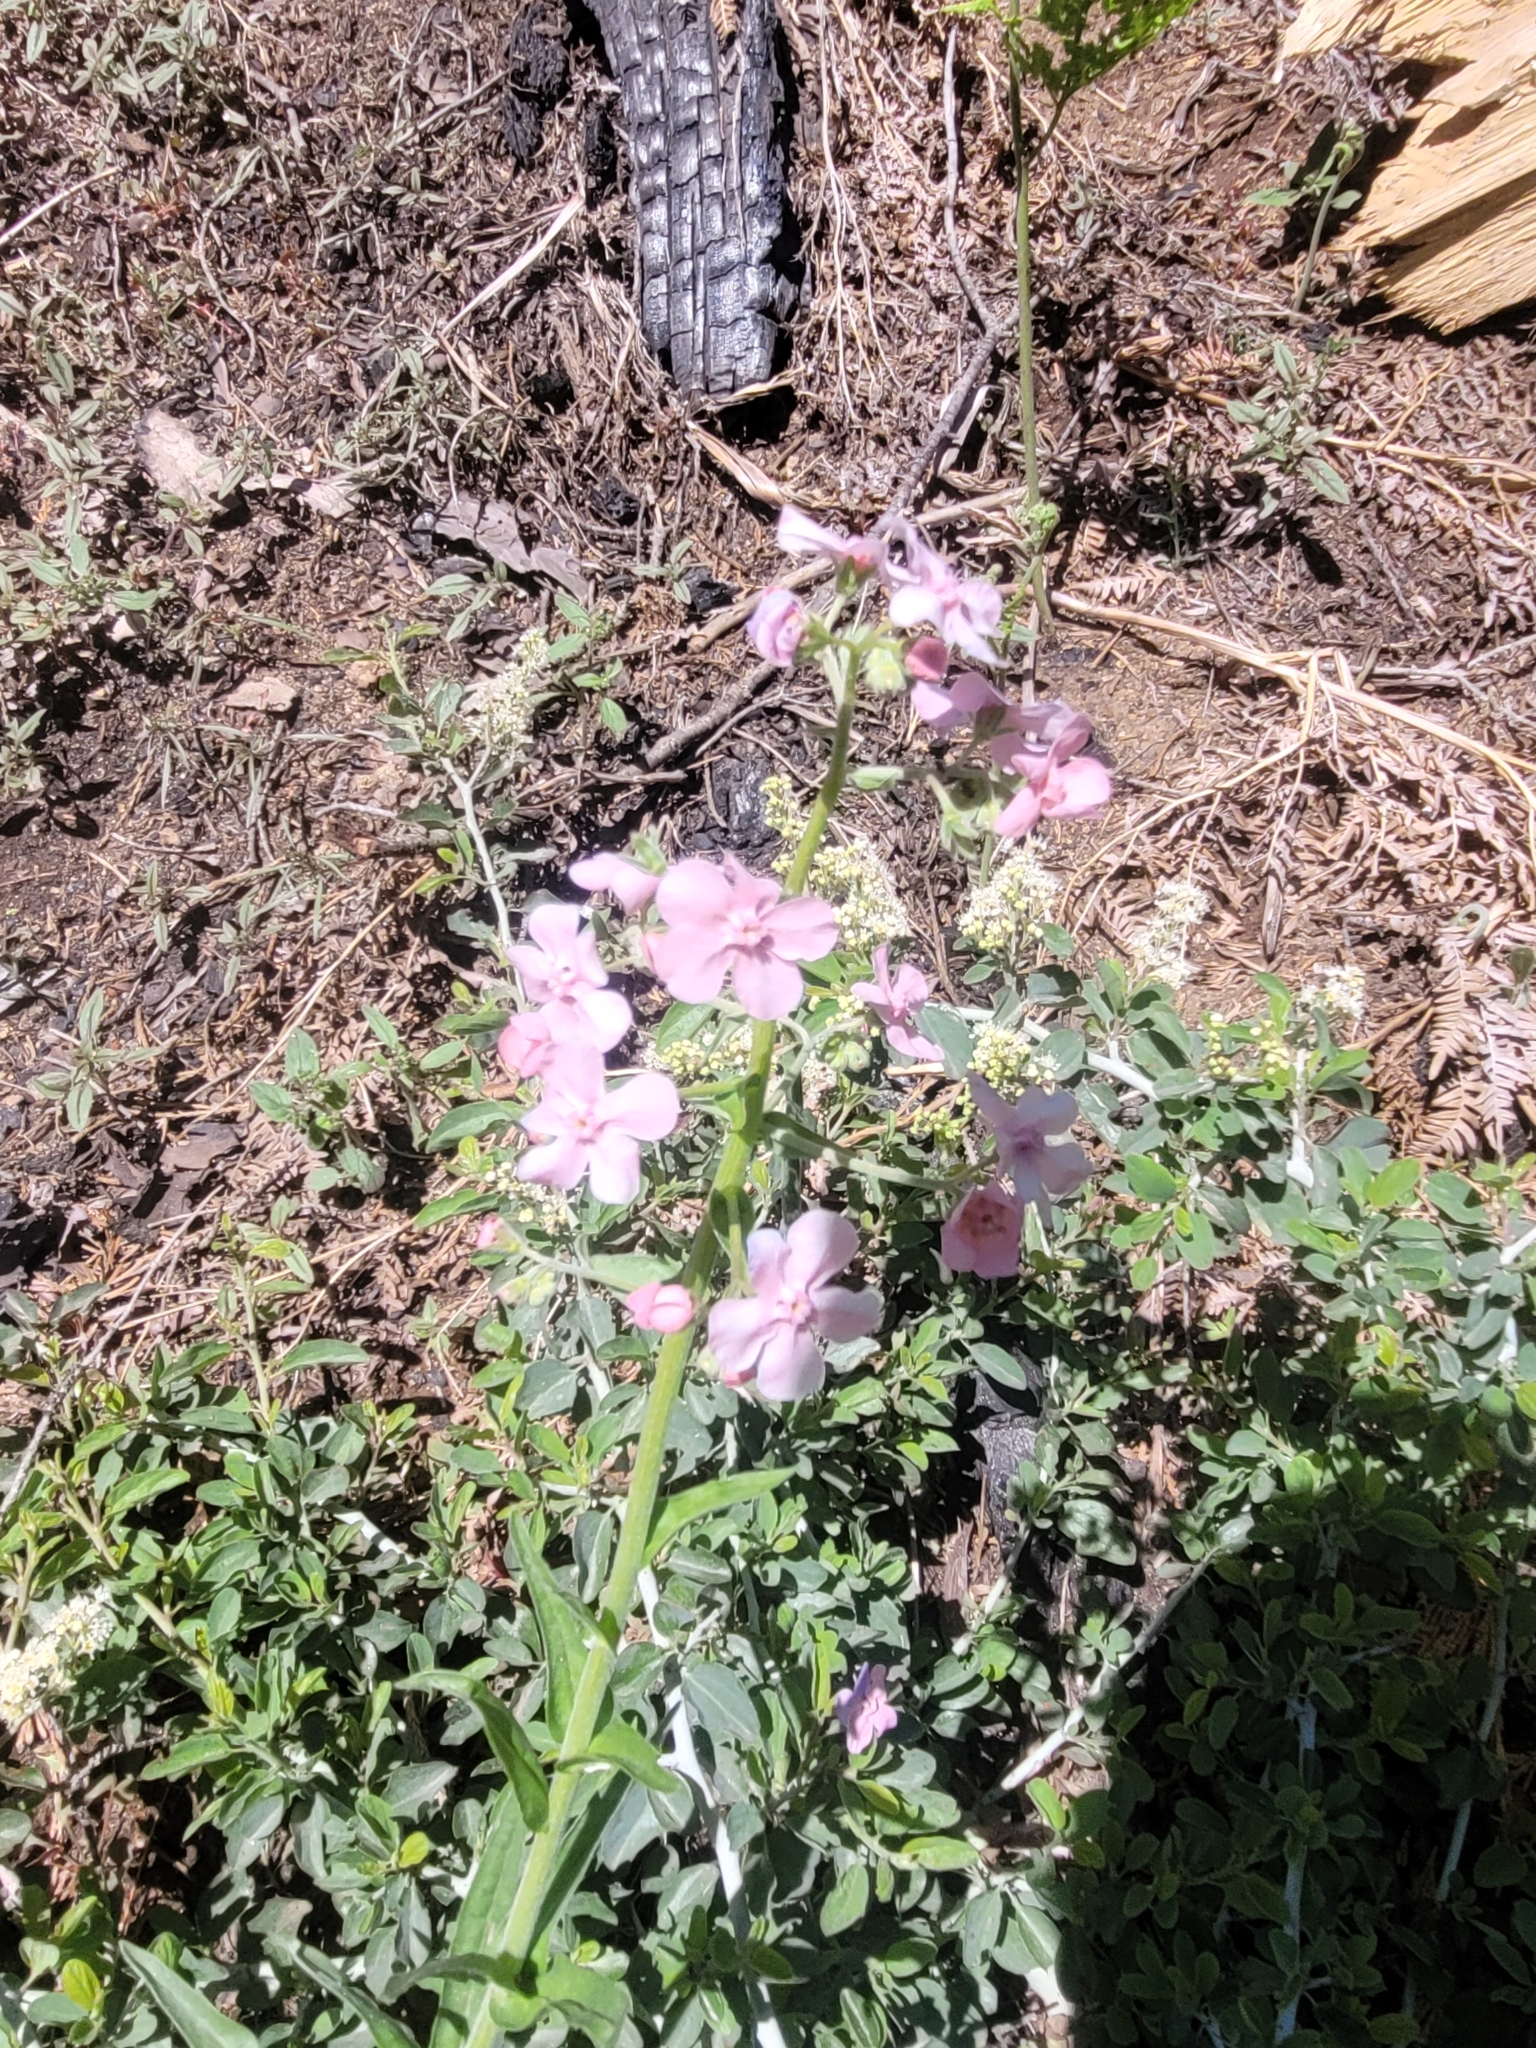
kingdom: Plantae
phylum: Tracheophyta
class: Magnoliopsida
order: Boraginales
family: Boraginaceae
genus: Hackelia
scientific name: Hackelia mundula
